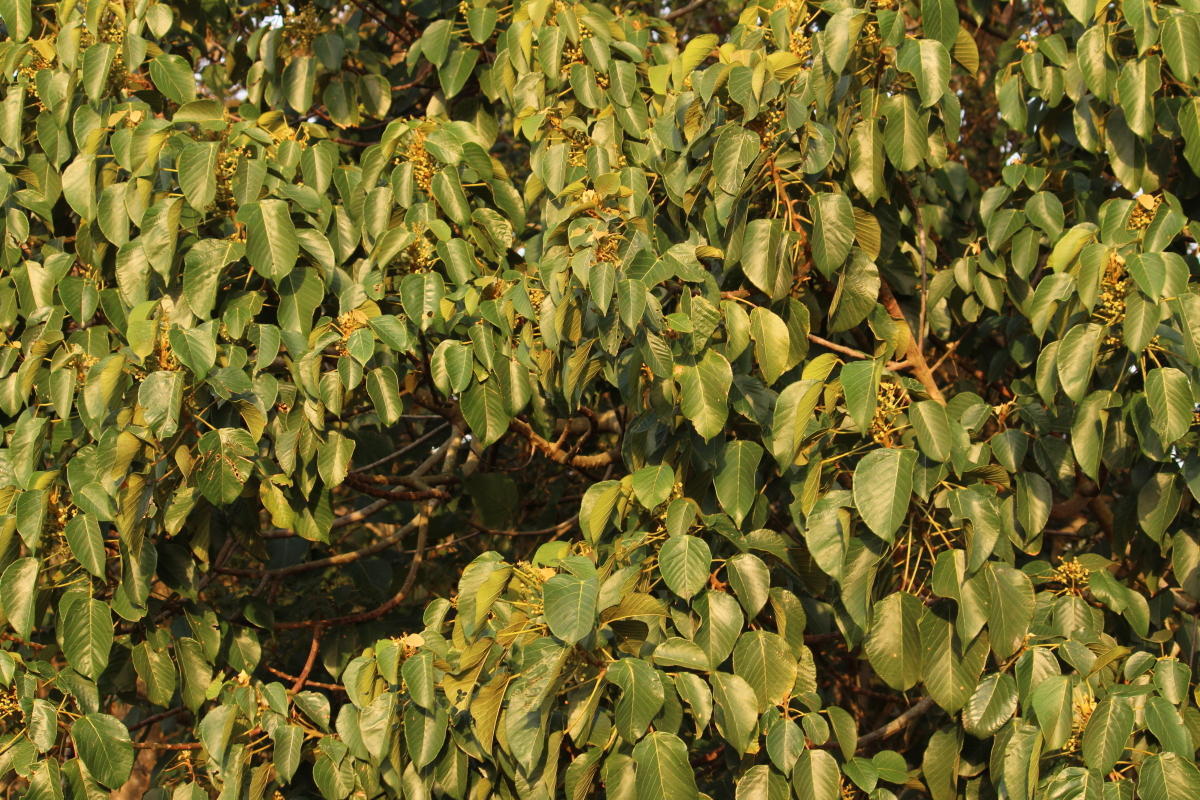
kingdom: Plantae
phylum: Tracheophyta
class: Magnoliopsida
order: Malpighiales
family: Euphorbiaceae
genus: Macaranga
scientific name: Macaranga capensis
